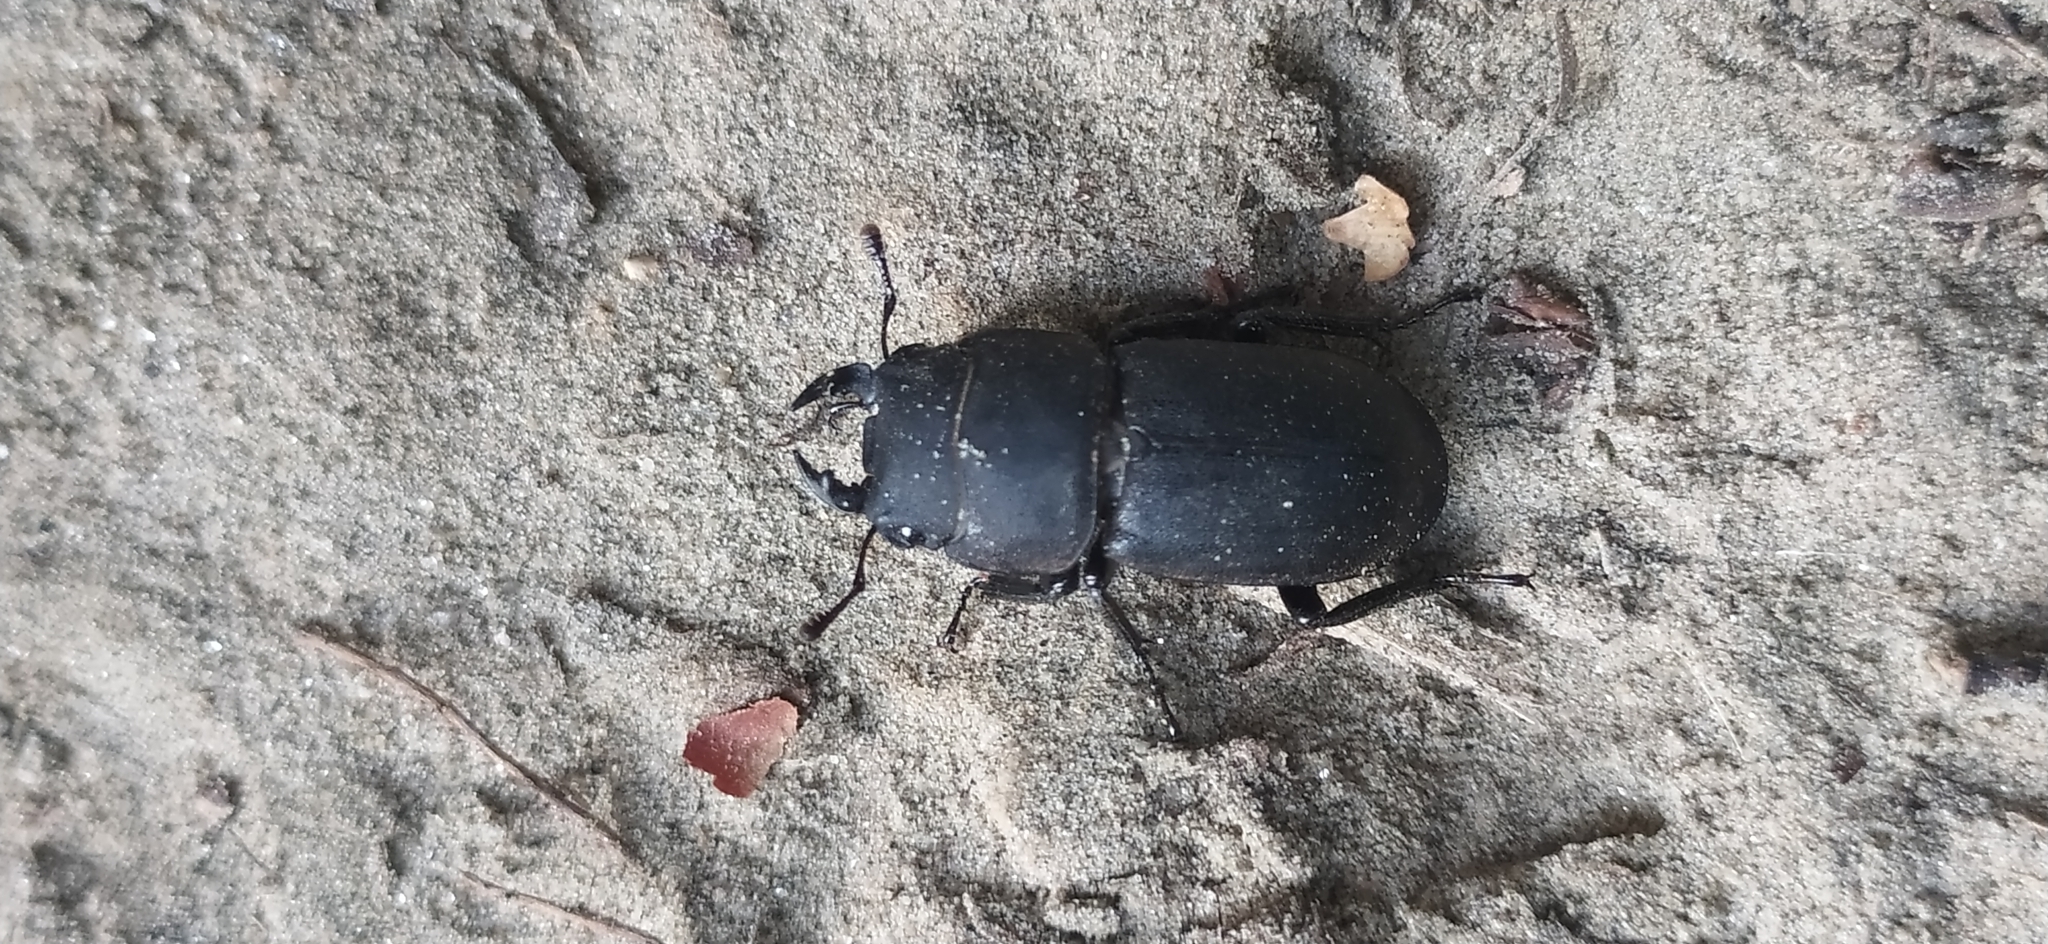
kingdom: Animalia
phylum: Arthropoda
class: Insecta
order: Coleoptera
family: Lucanidae
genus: Dorcus
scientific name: Dorcus parallelipipedus
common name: Lesser stag beetle
